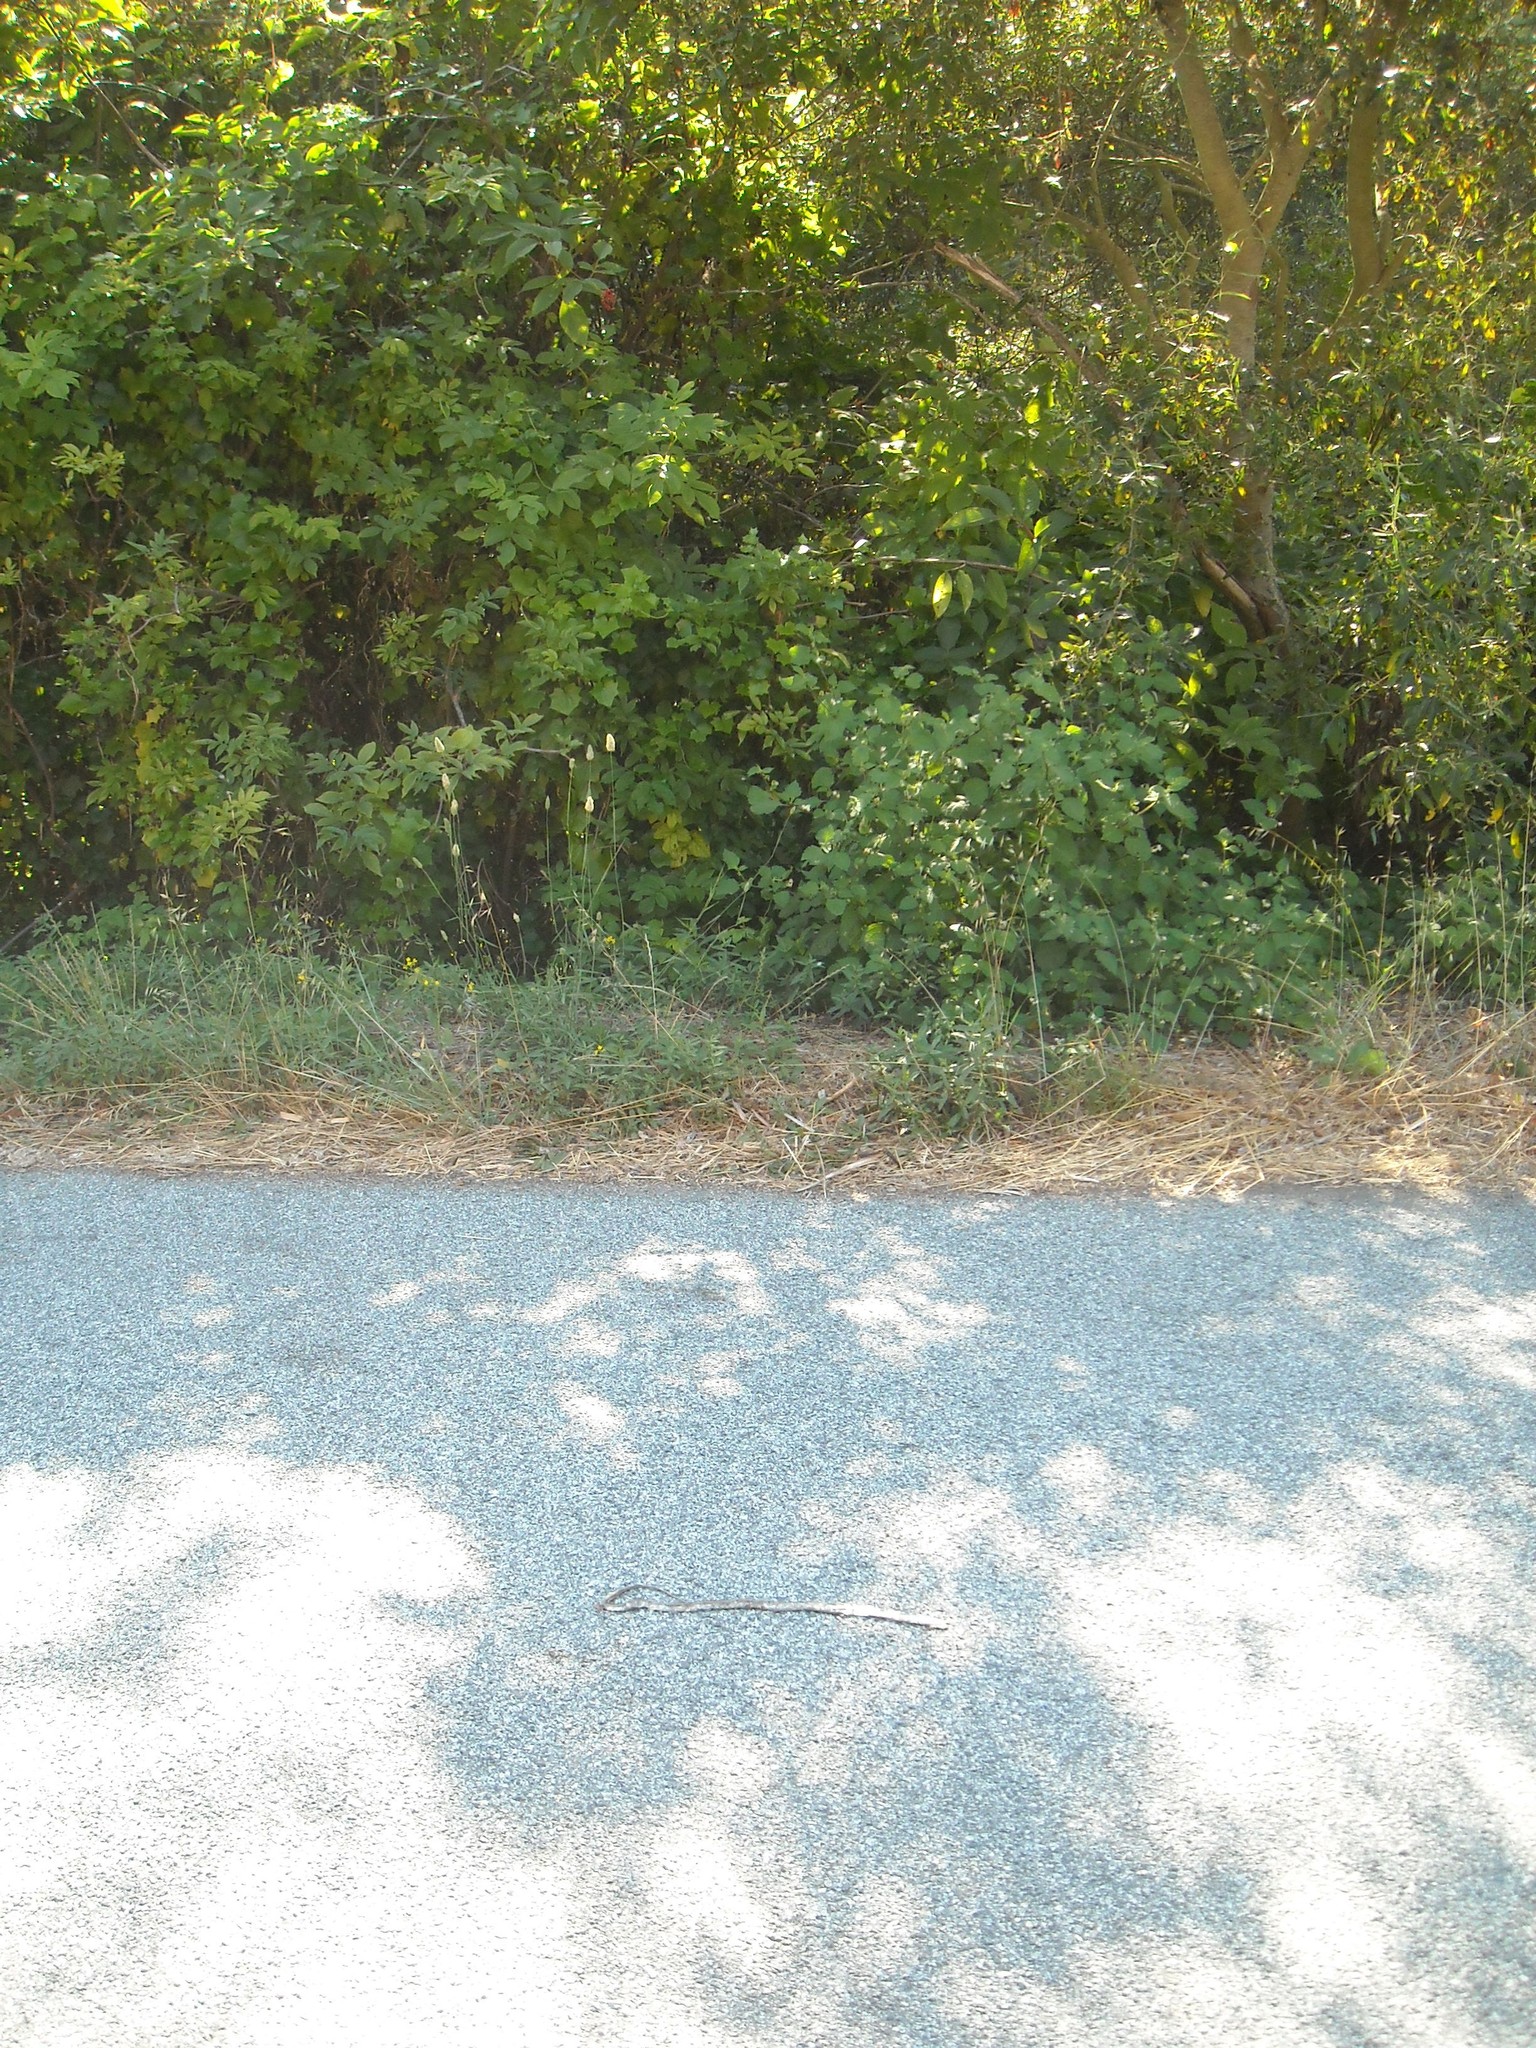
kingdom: Animalia
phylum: Chordata
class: Squamata
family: Colubridae
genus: Thamnophis
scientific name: Thamnophis elegans
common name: Western terrestrial garter snake
